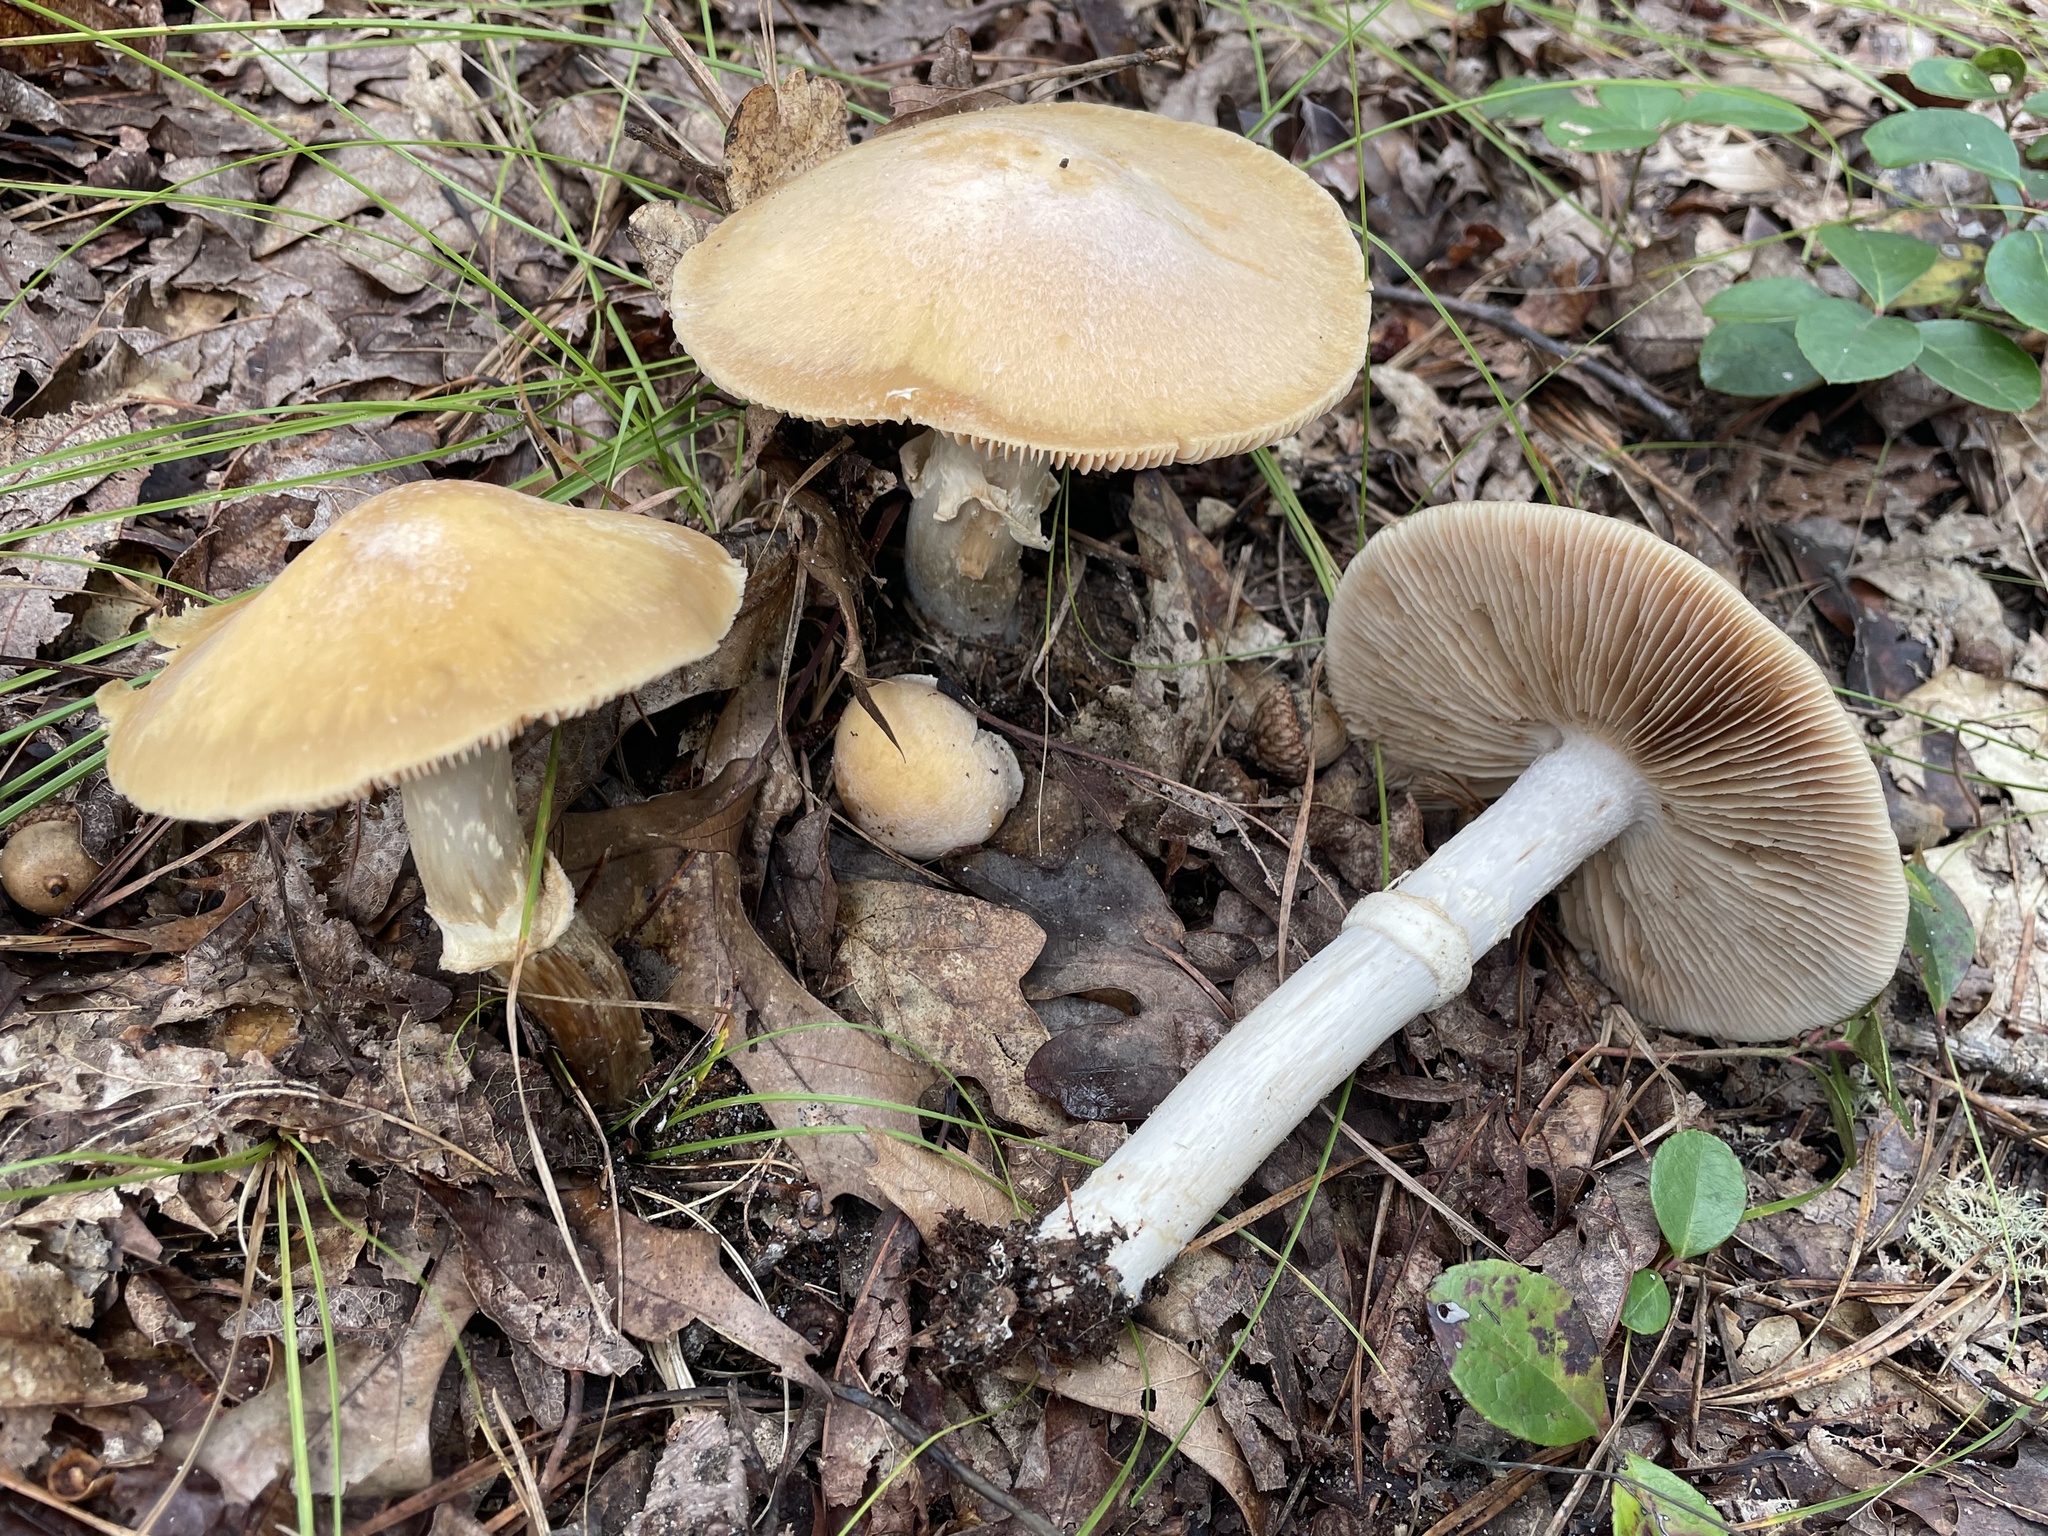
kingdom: Fungi
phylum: Basidiomycota
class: Agaricomycetes
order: Agaricales
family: Cortinariaceae
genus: Cortinarius
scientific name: Cortinarius caperatus
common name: The gypsy
